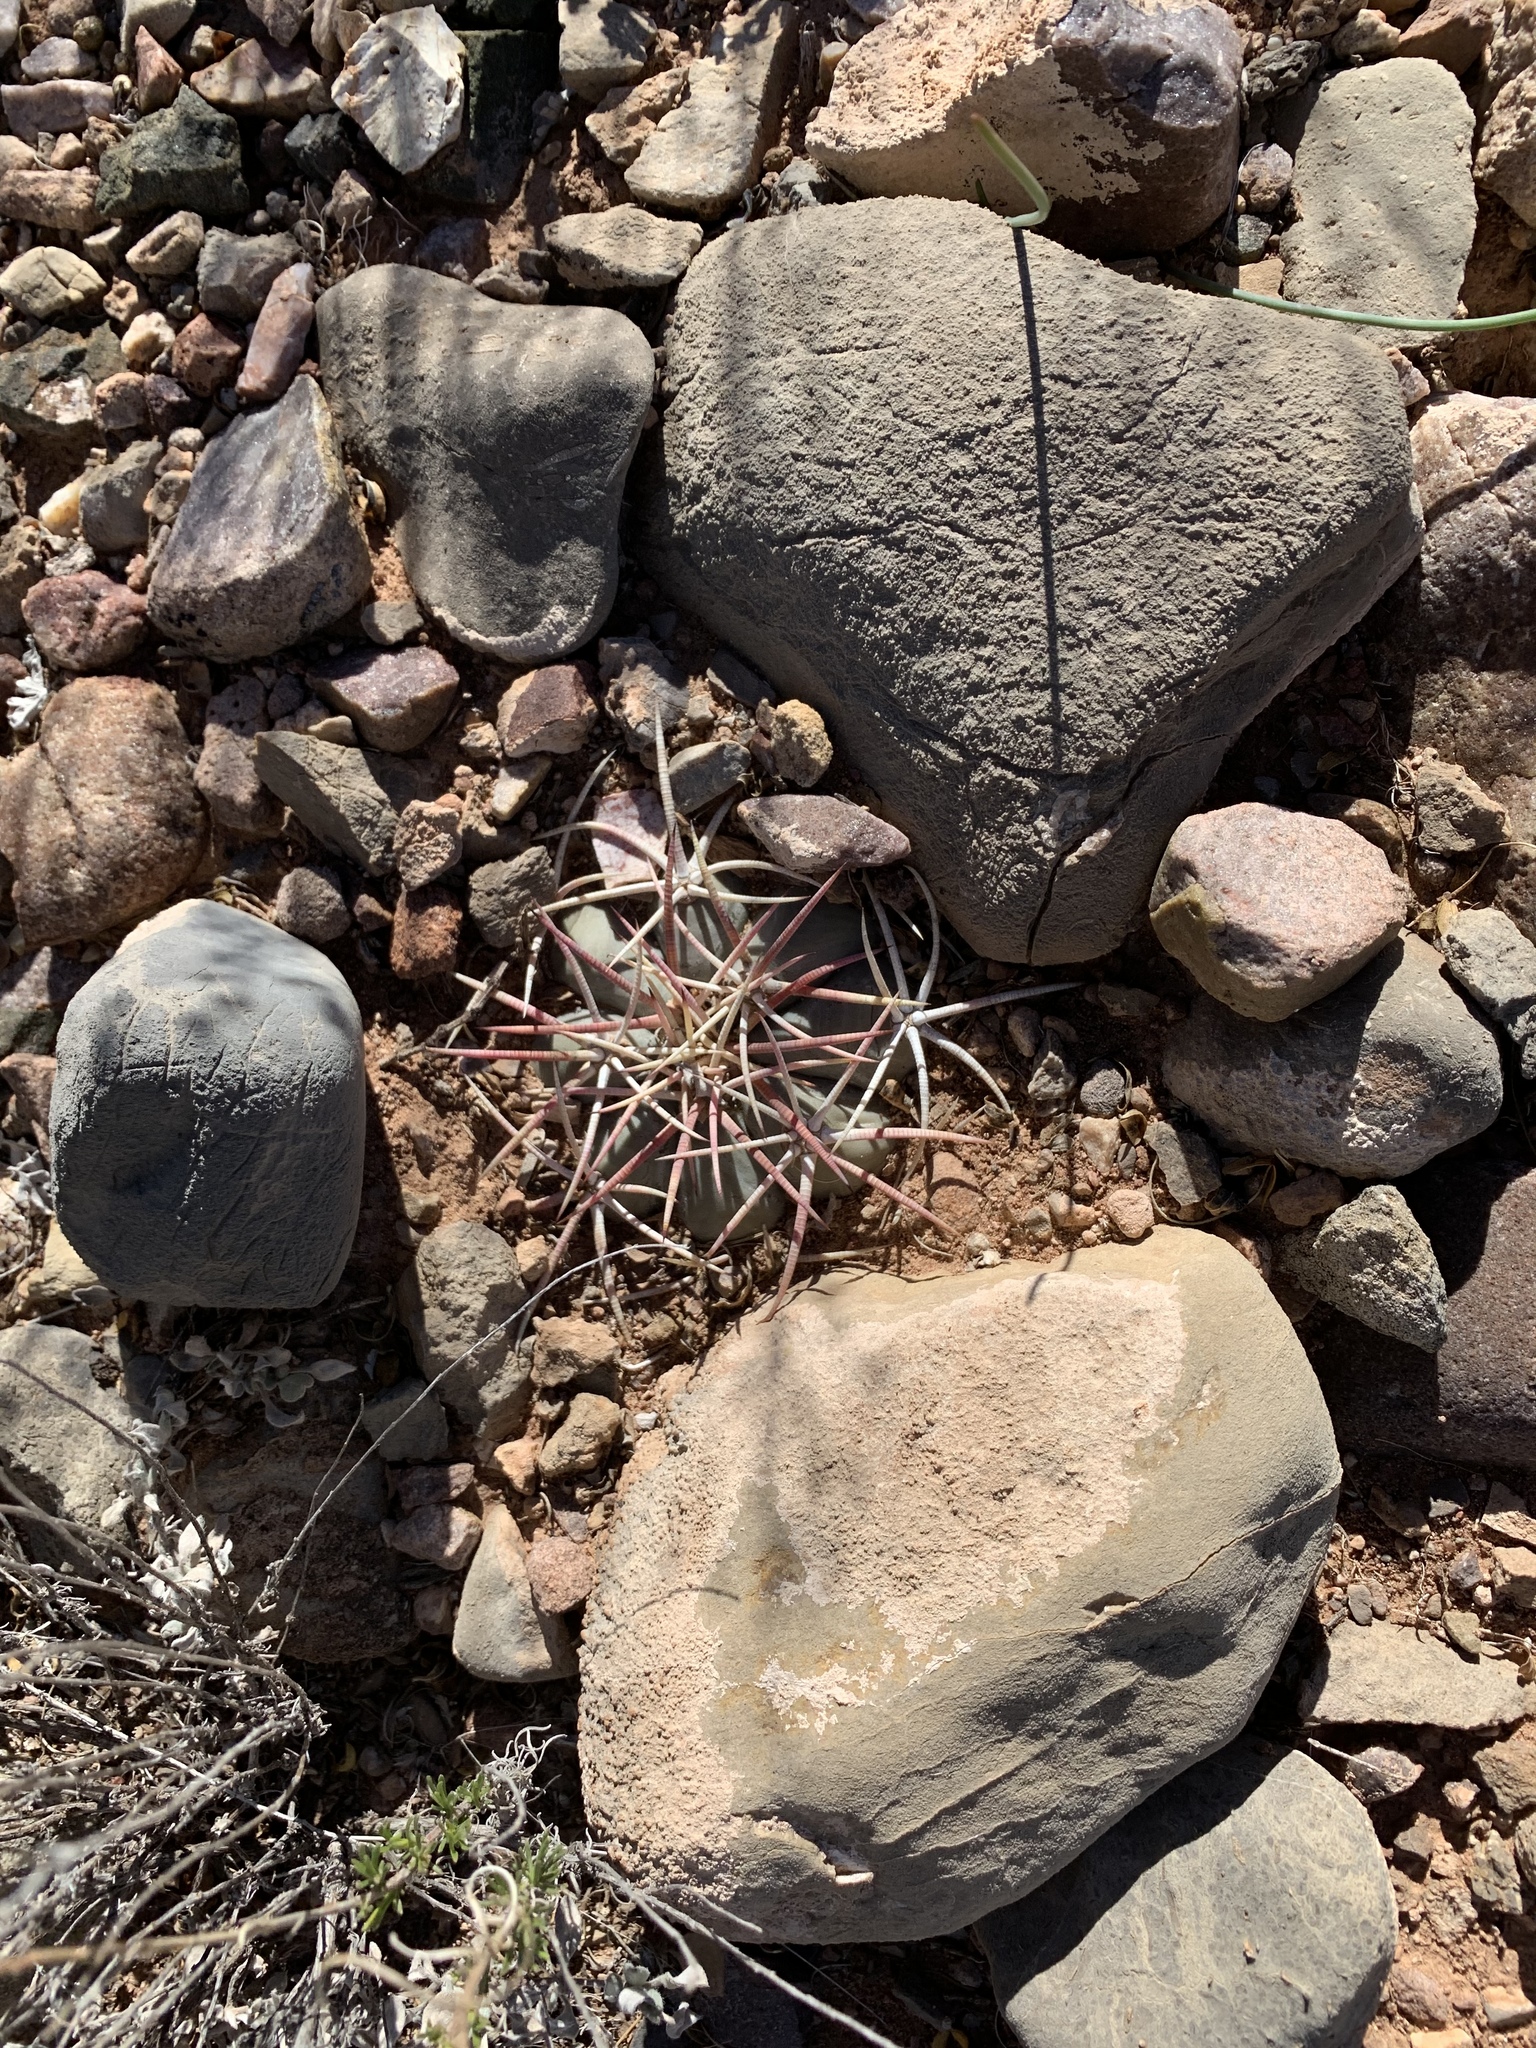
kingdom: Plantae
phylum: Tracheophyta
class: Magnoliopsida
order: Caryophyllales
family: Cactaceae
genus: Echinocactus
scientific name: Echinocactus horizonthalonius
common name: Devilshead
